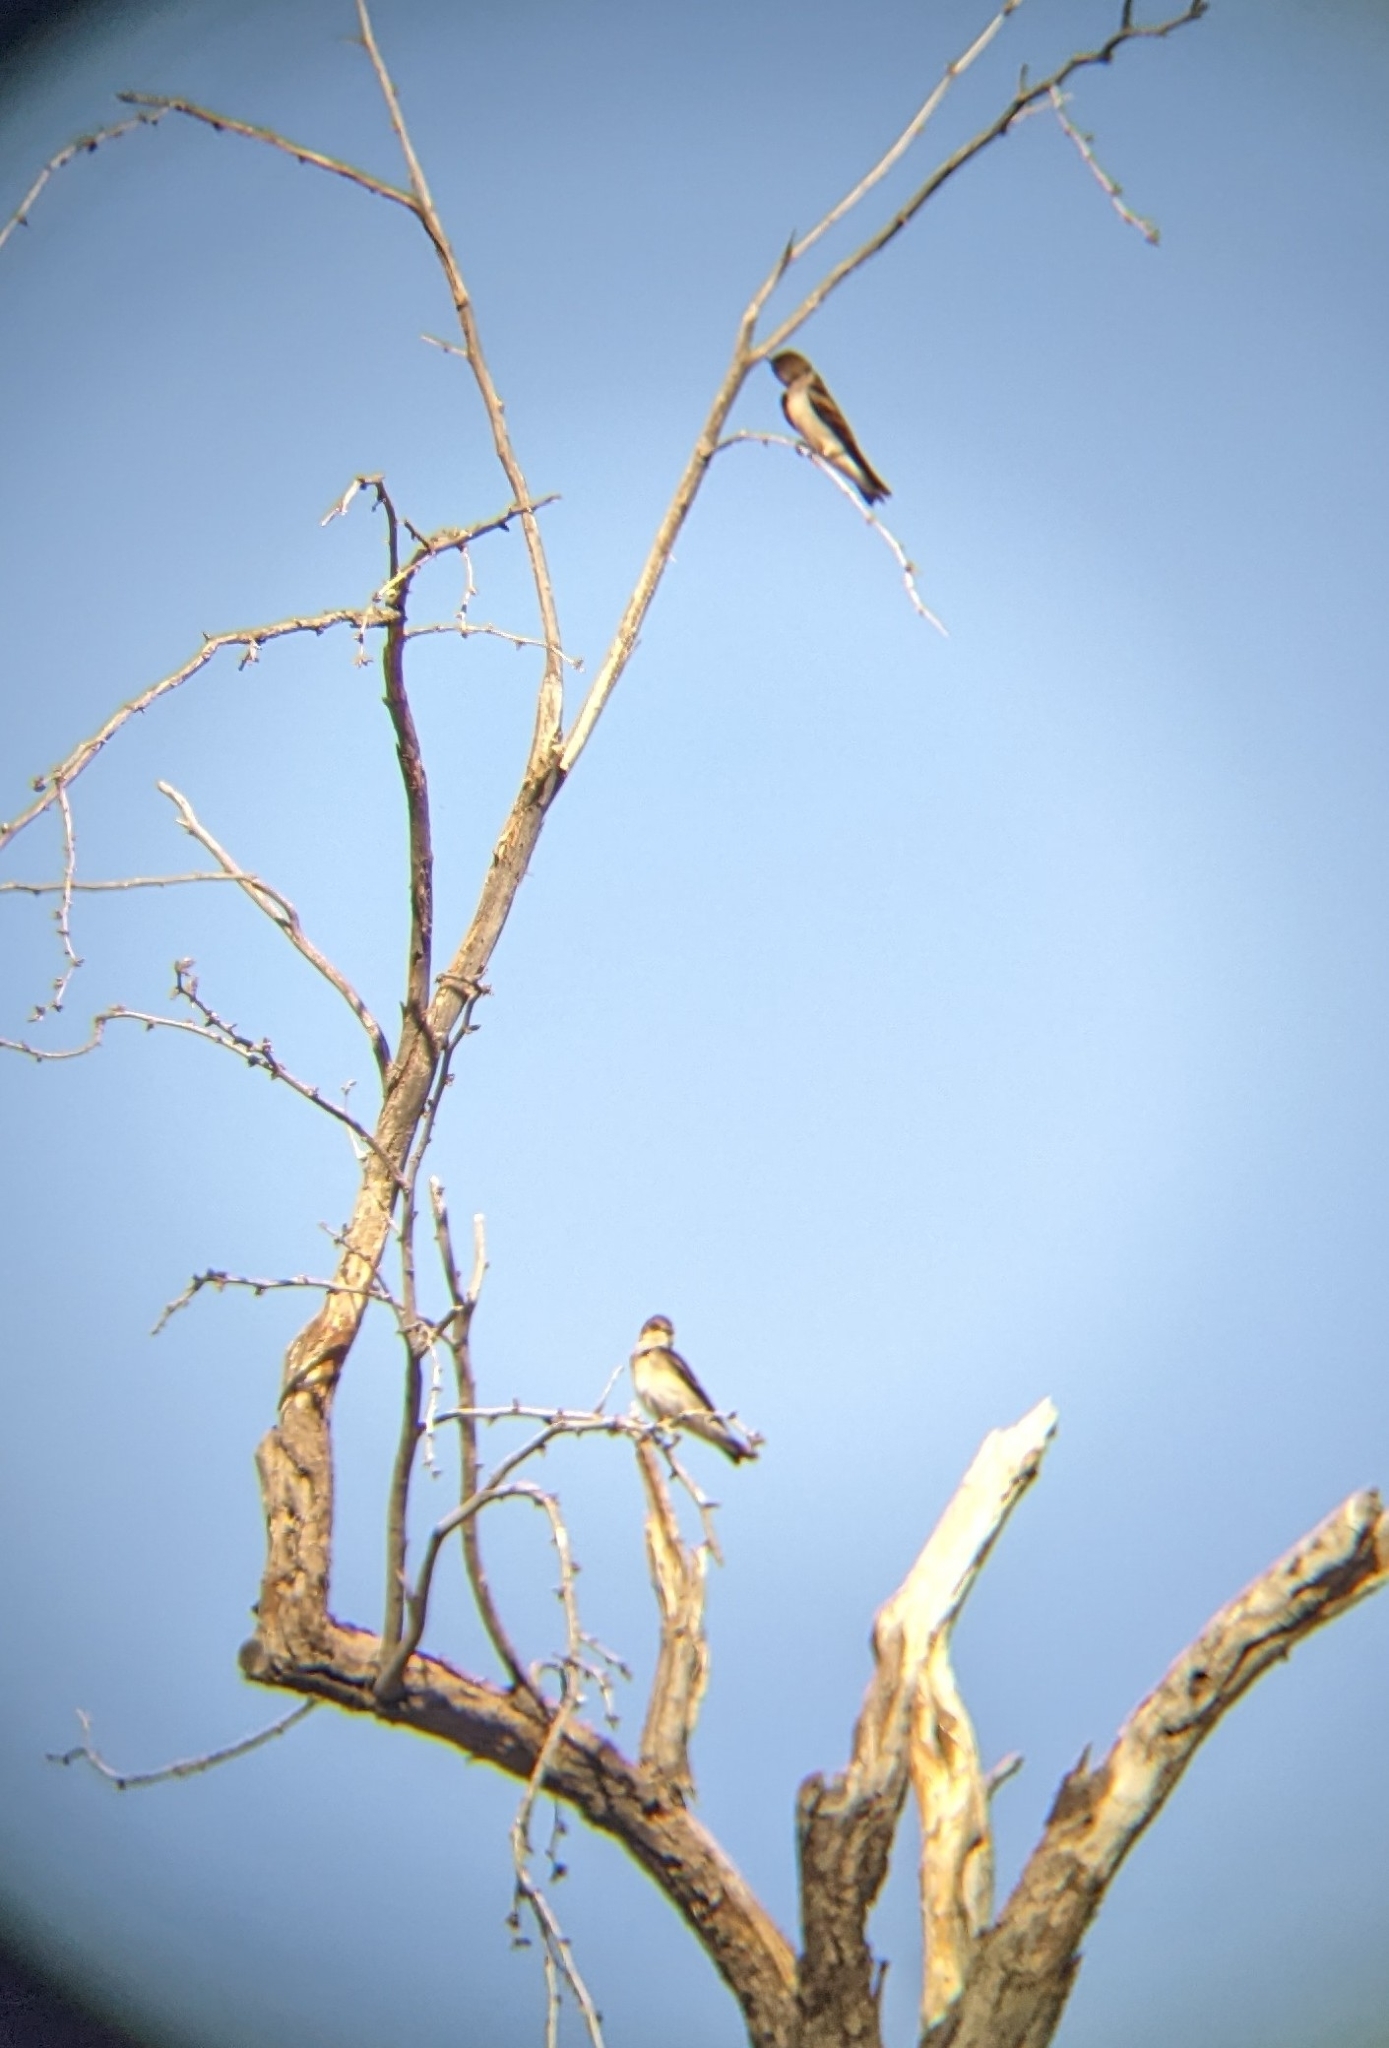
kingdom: Animalia
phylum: Chordata
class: Aves
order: Passeriformes
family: Hirundinidae
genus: Stelgidopteryx
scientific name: Stelgidopteryx serripennis
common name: Northern rough-winged swallow
